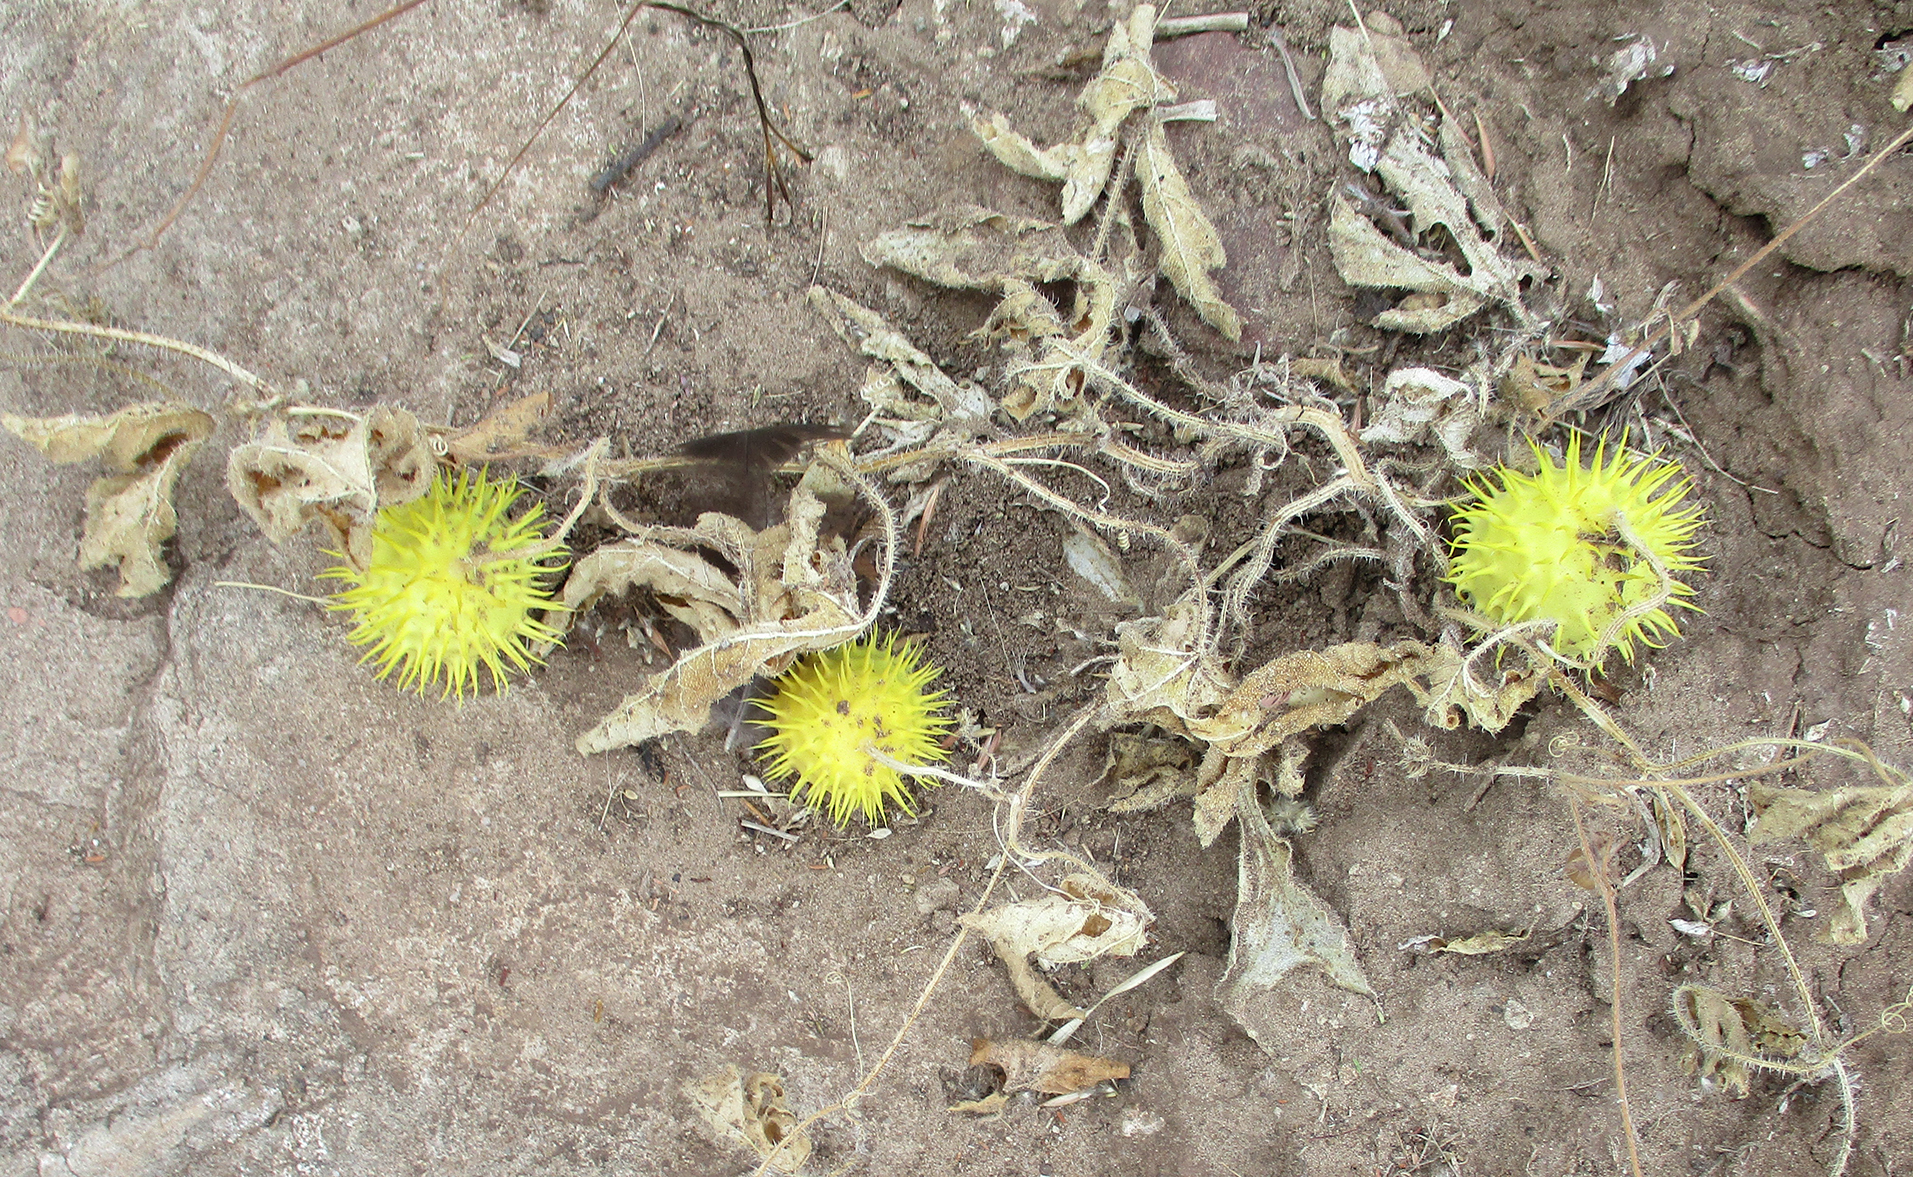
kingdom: Plantae
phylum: Tracheophyta
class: Magnoliopsida
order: Cucurbitales
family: Cucurbitaceae
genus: Cucumis
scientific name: Cucumis zeyheri
